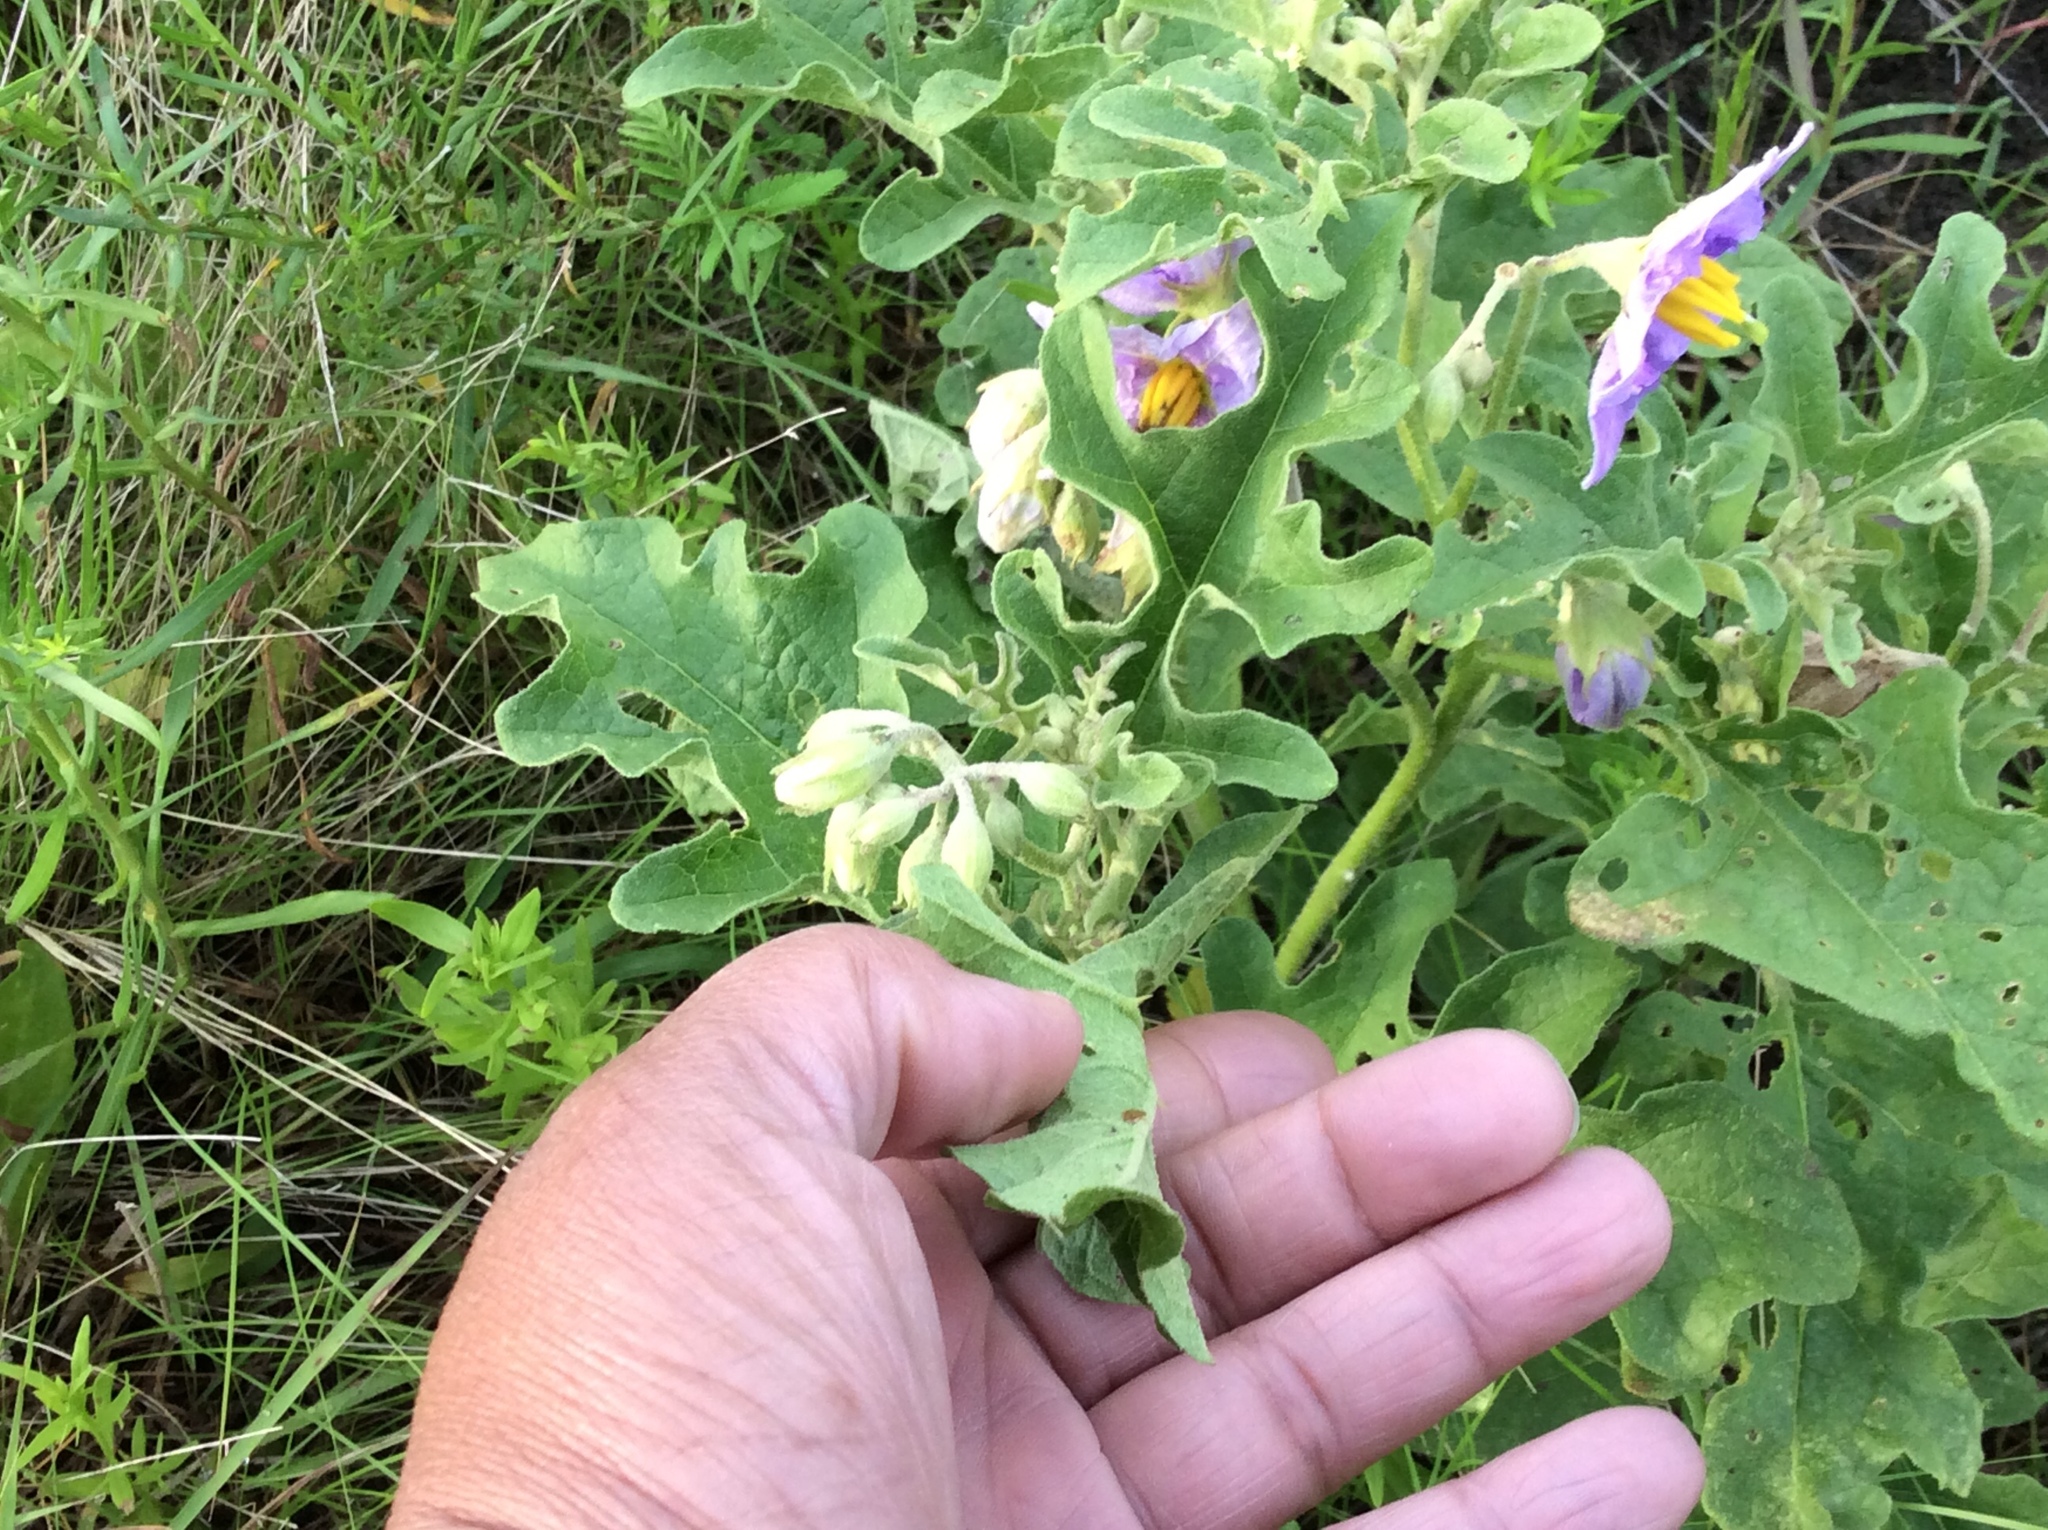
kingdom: Plantae
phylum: Tracheophyta
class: Magnoliopsida
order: Solanales
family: Solanaceae
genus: Solanum
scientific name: Solanum dimidiatum
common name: Carolina horse-nettle
